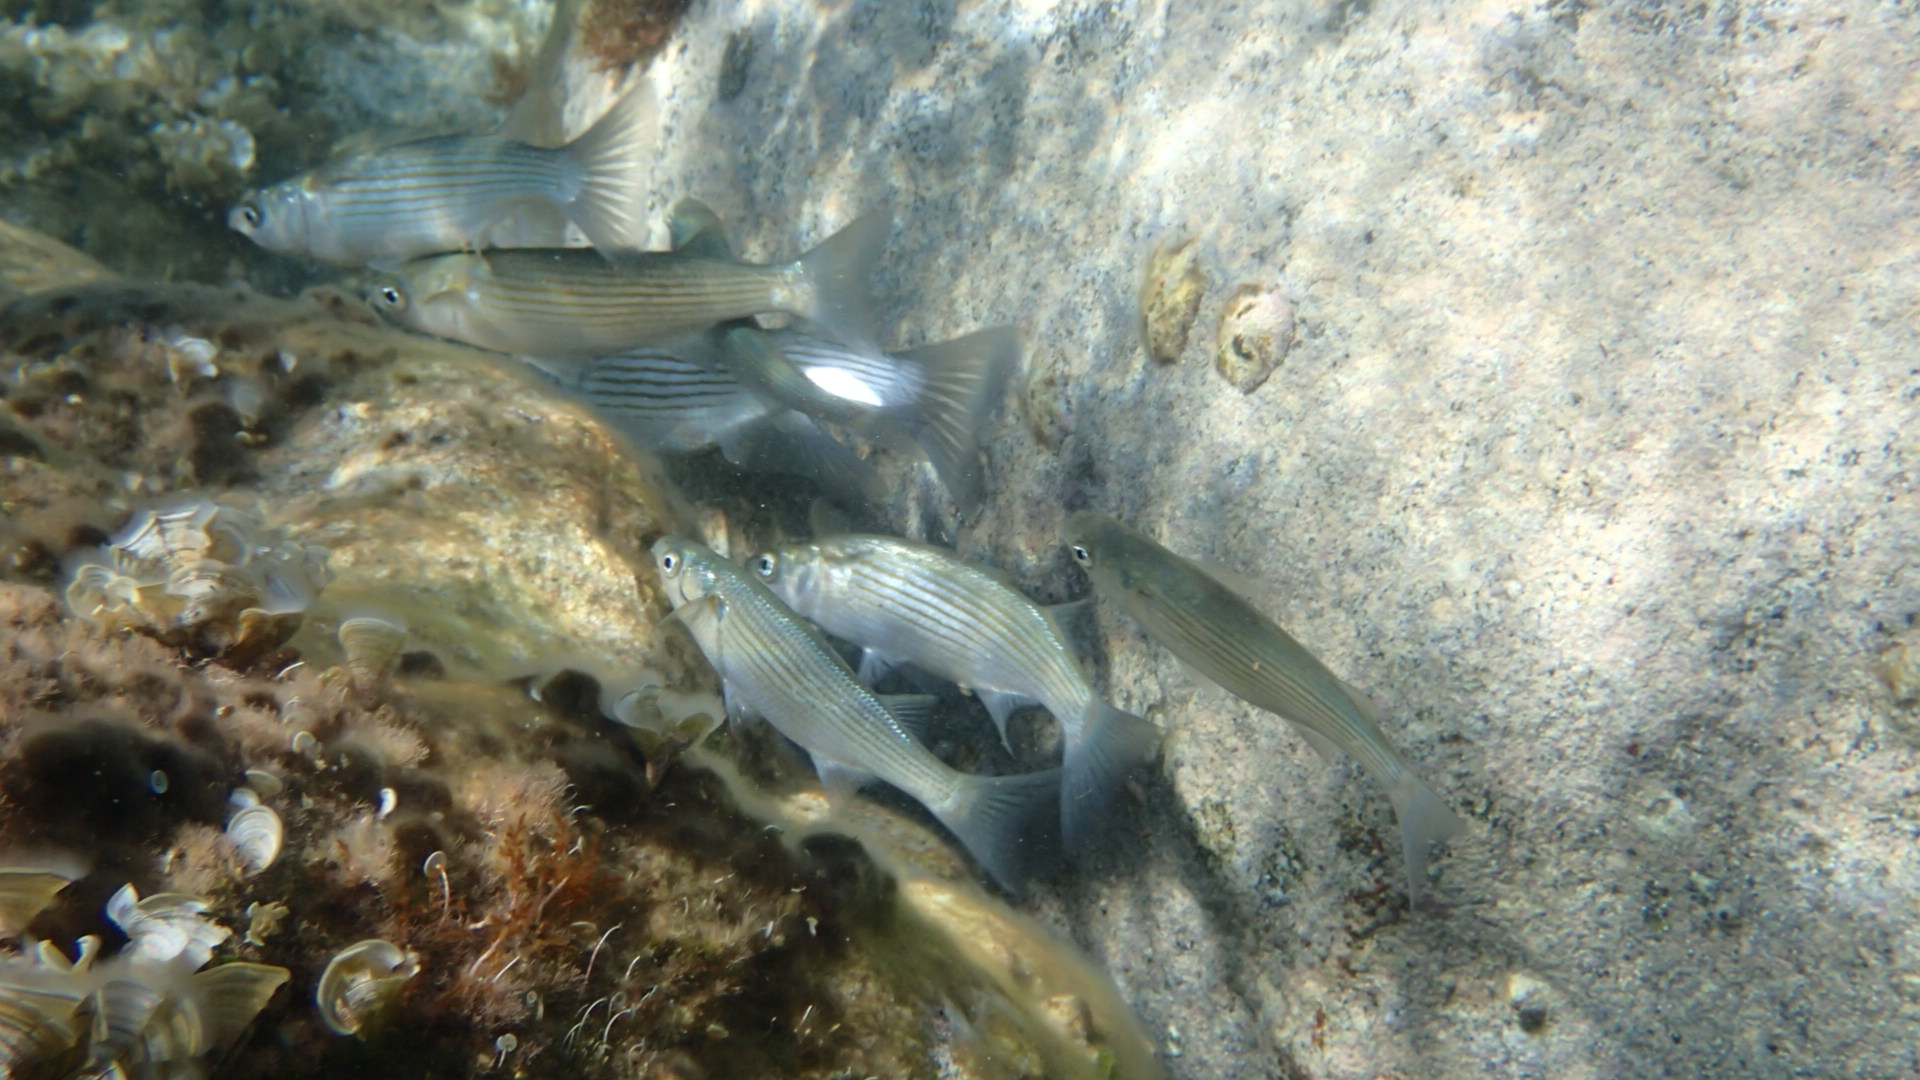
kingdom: Animalia
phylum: Chordata
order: Mugiliformes
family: Mugilidae
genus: Oedalechilus
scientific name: Oedalechilus labeo
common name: Boxlip mullet
